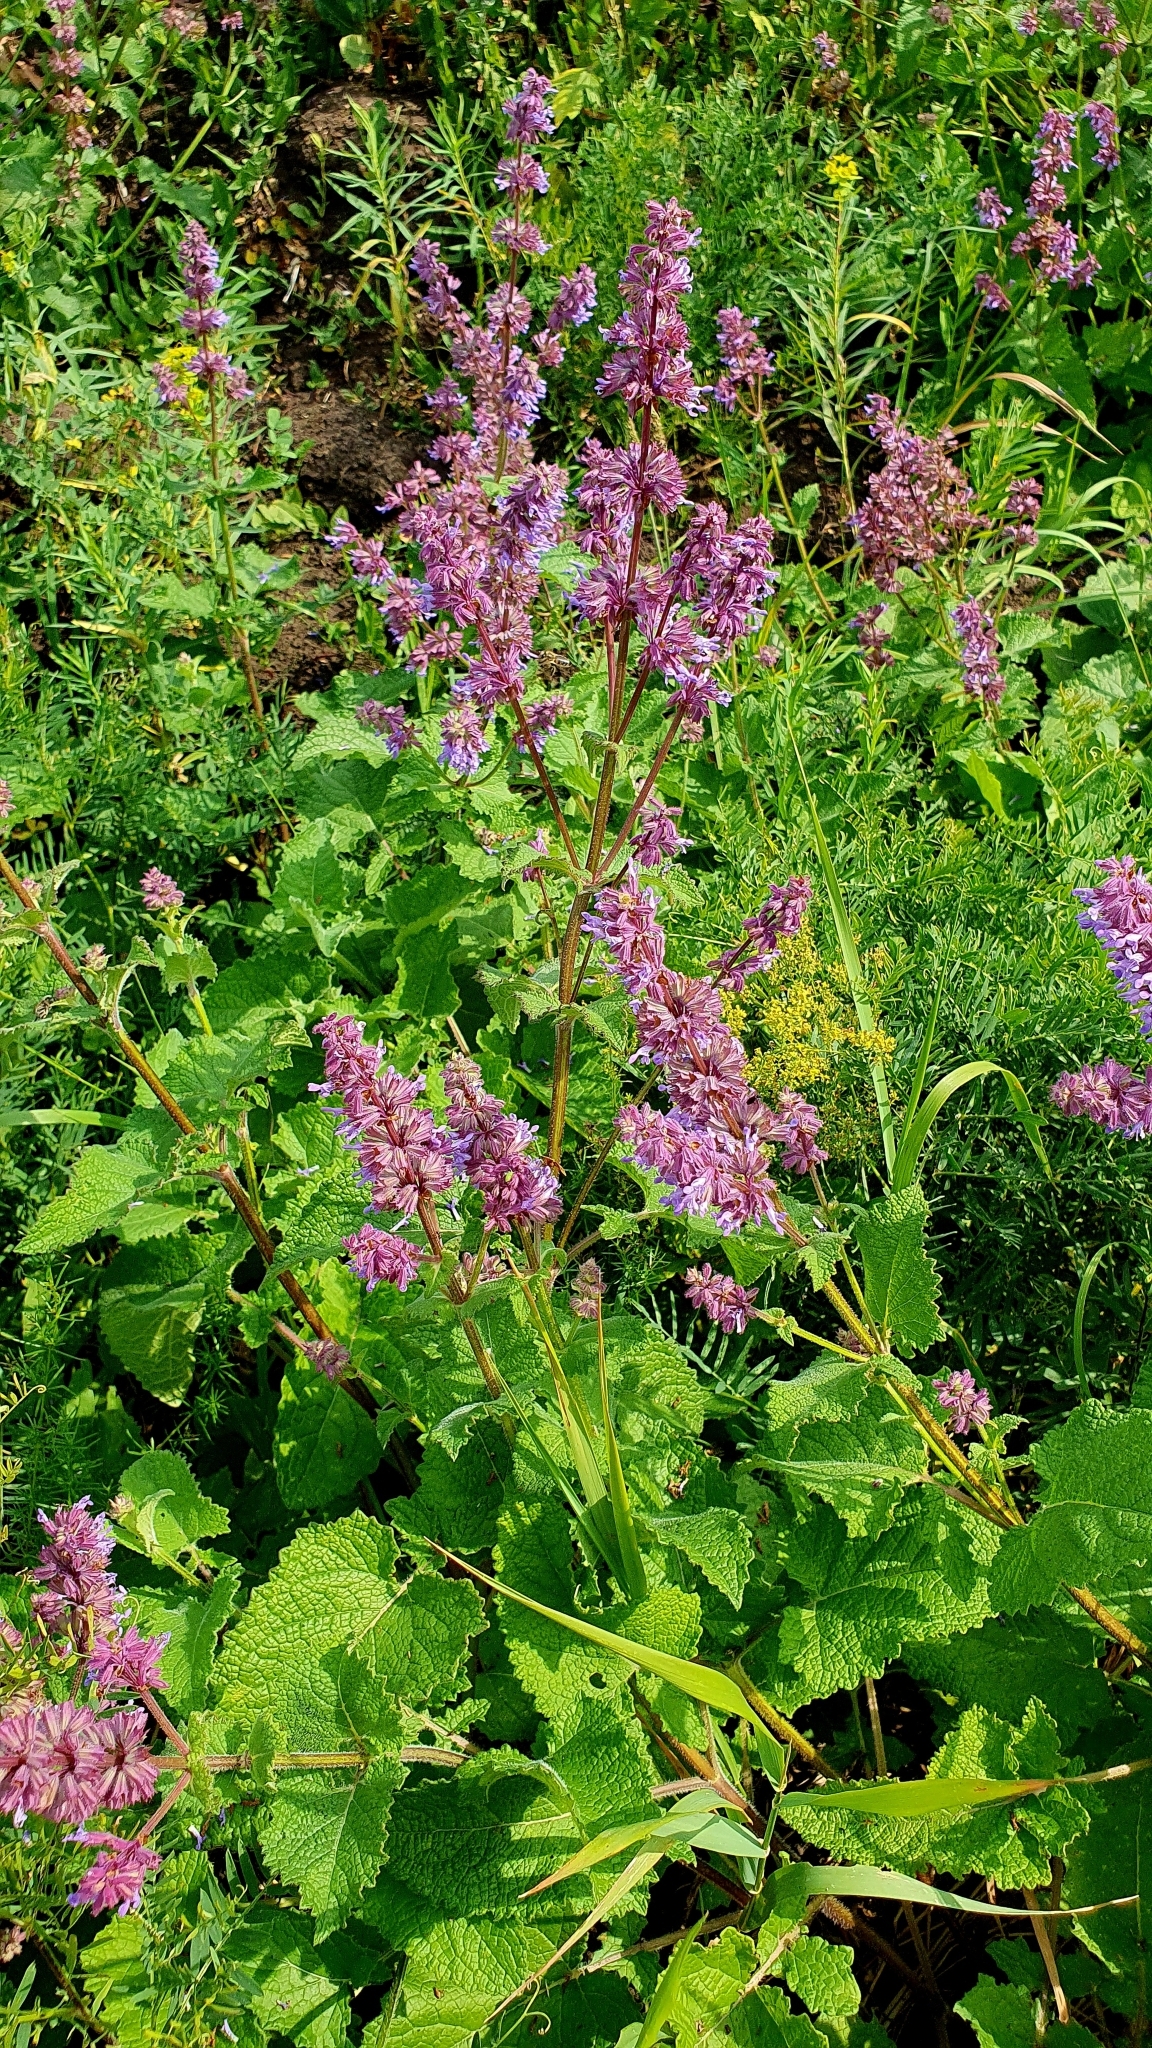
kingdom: Plantae
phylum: Tracheophyta
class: Magnoliopsida
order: Lamiales
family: Lamiaceae
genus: Salvia
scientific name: Salvia verticillata
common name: Whorled clary
